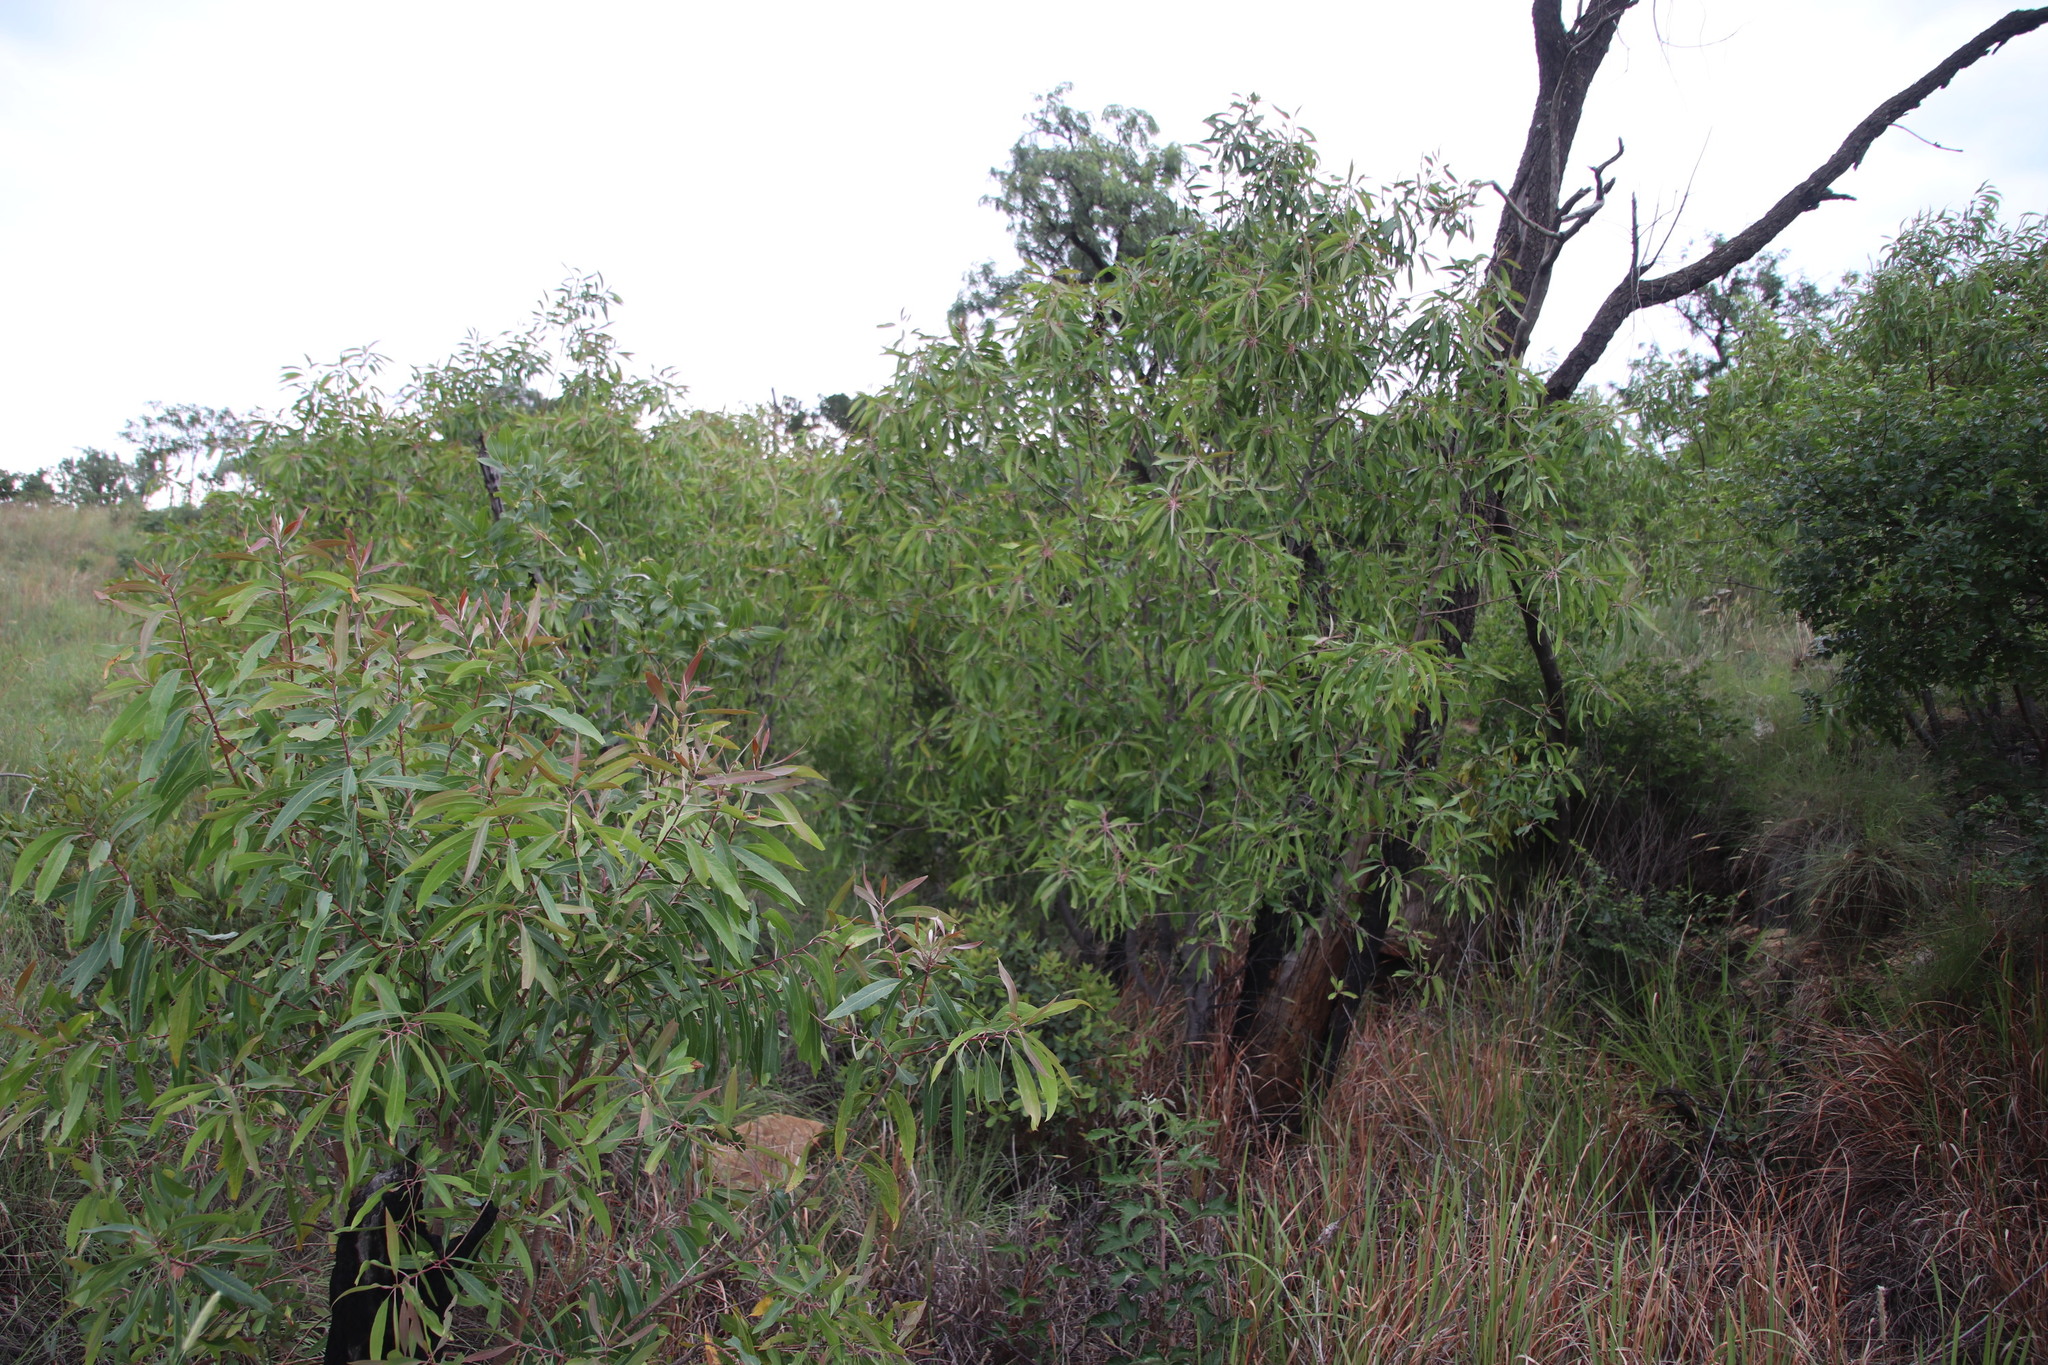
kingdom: Plantae
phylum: Tracheophyta
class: Magnoliopsida
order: Proteales
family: Proteaceae
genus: Faurea
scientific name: Faurea saligna
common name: African bean
